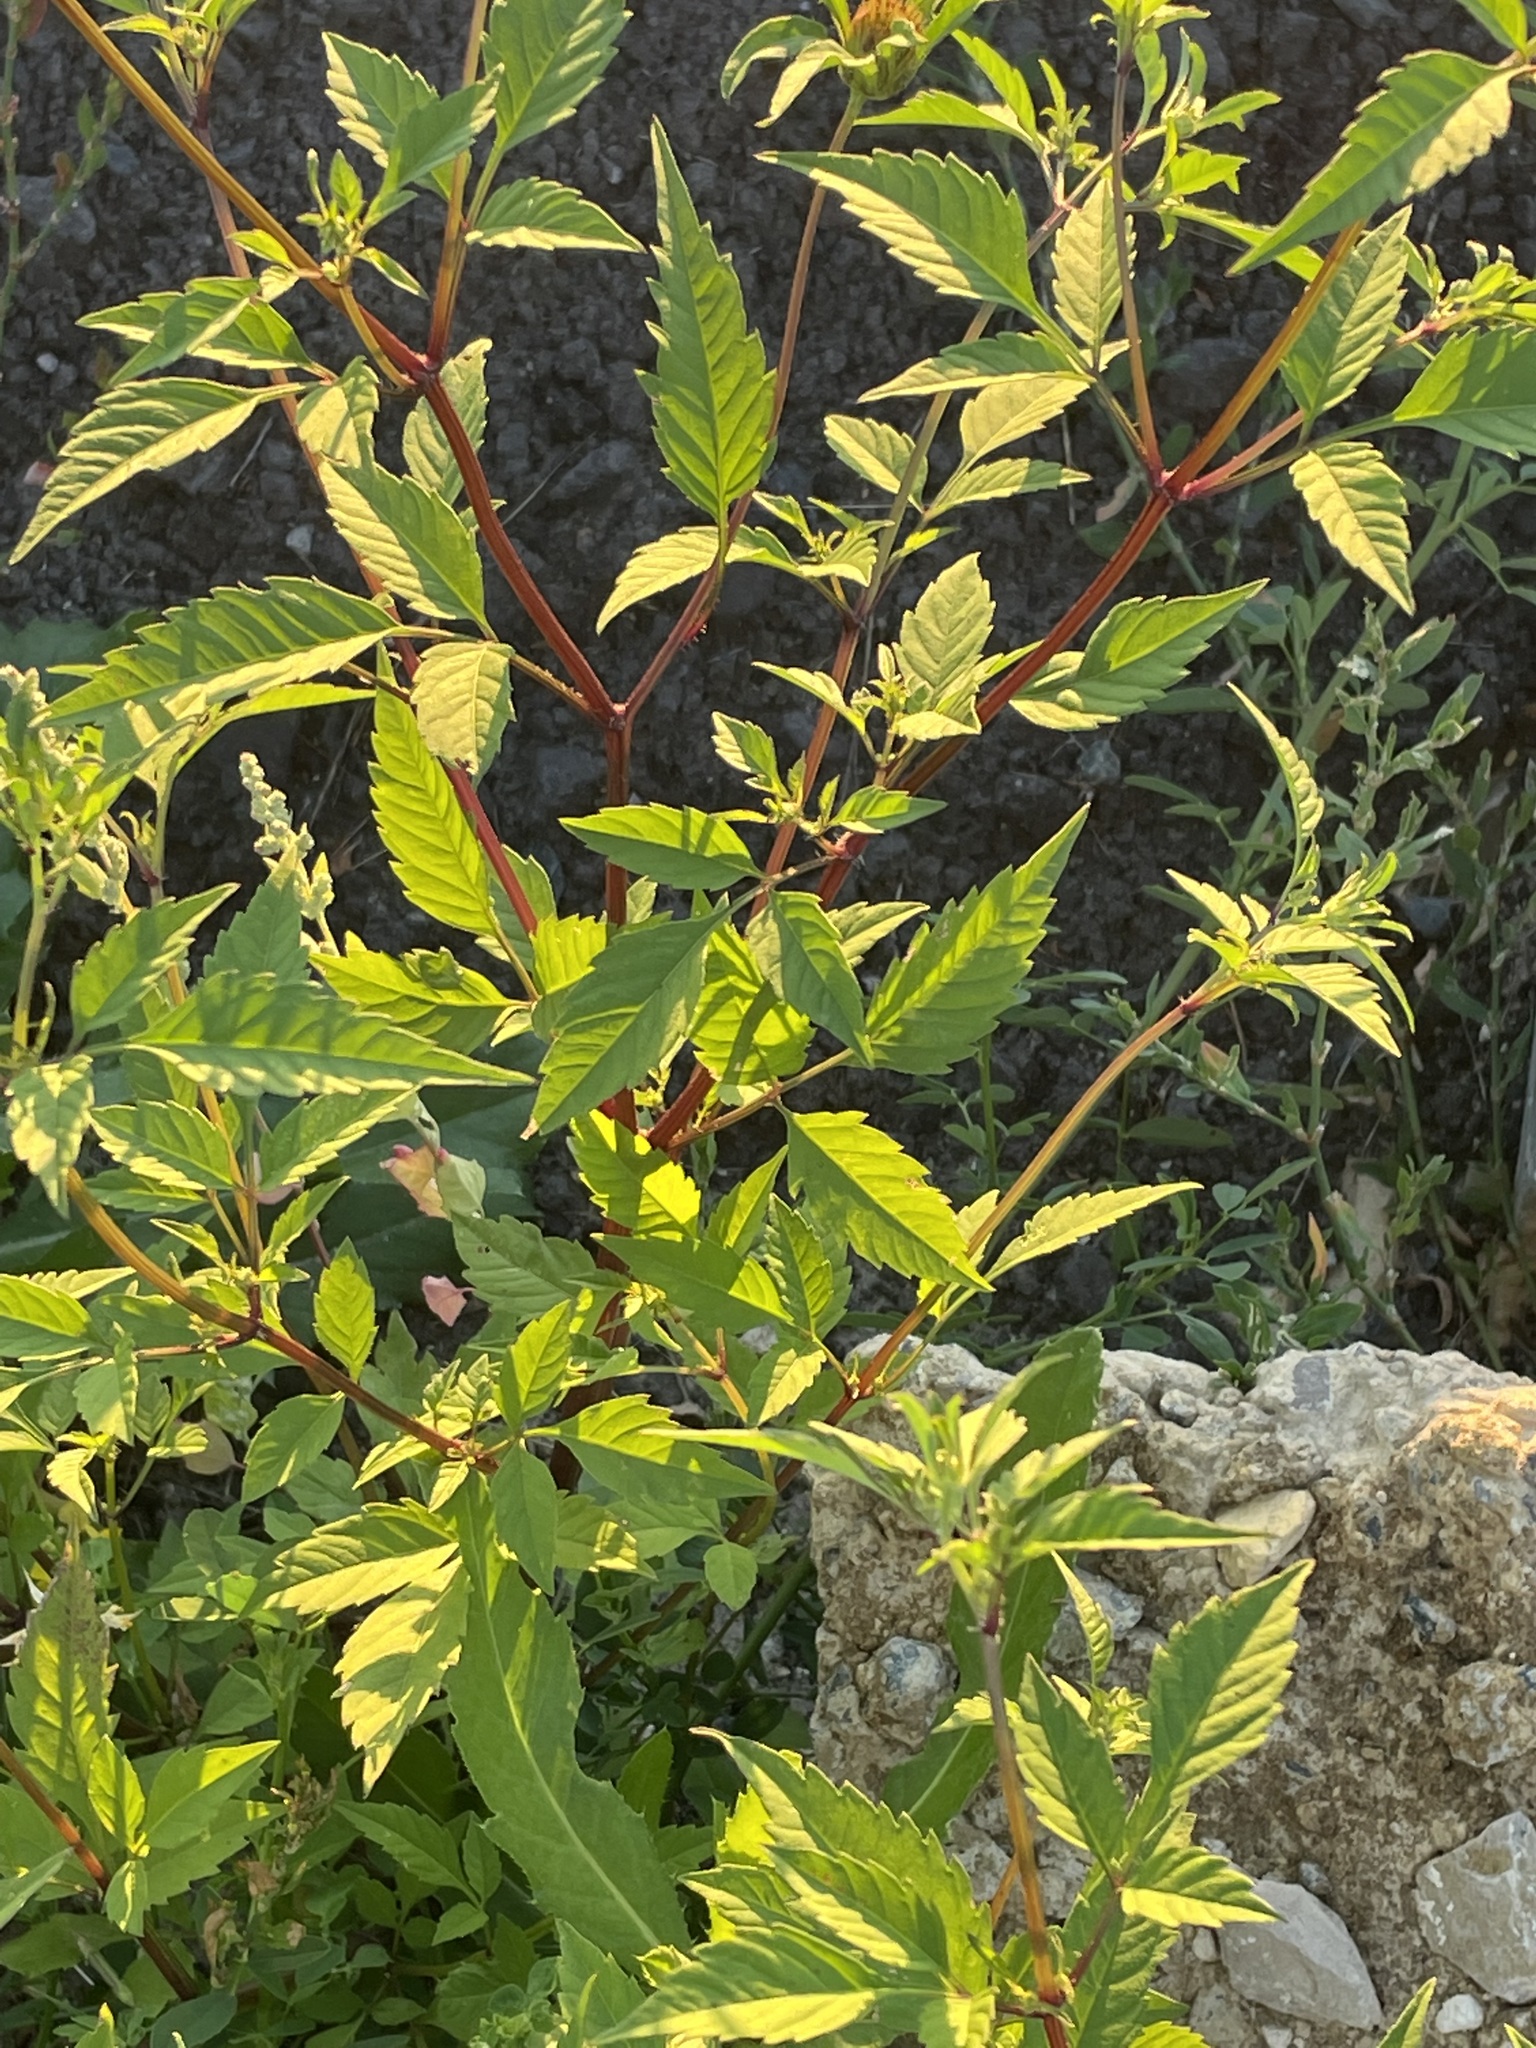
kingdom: Plantae
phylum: Tracheophyta
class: Magnoliopsida
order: Asterales
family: Asteraceae
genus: Bidens
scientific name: Bidens frondosa
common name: Beggarticks
